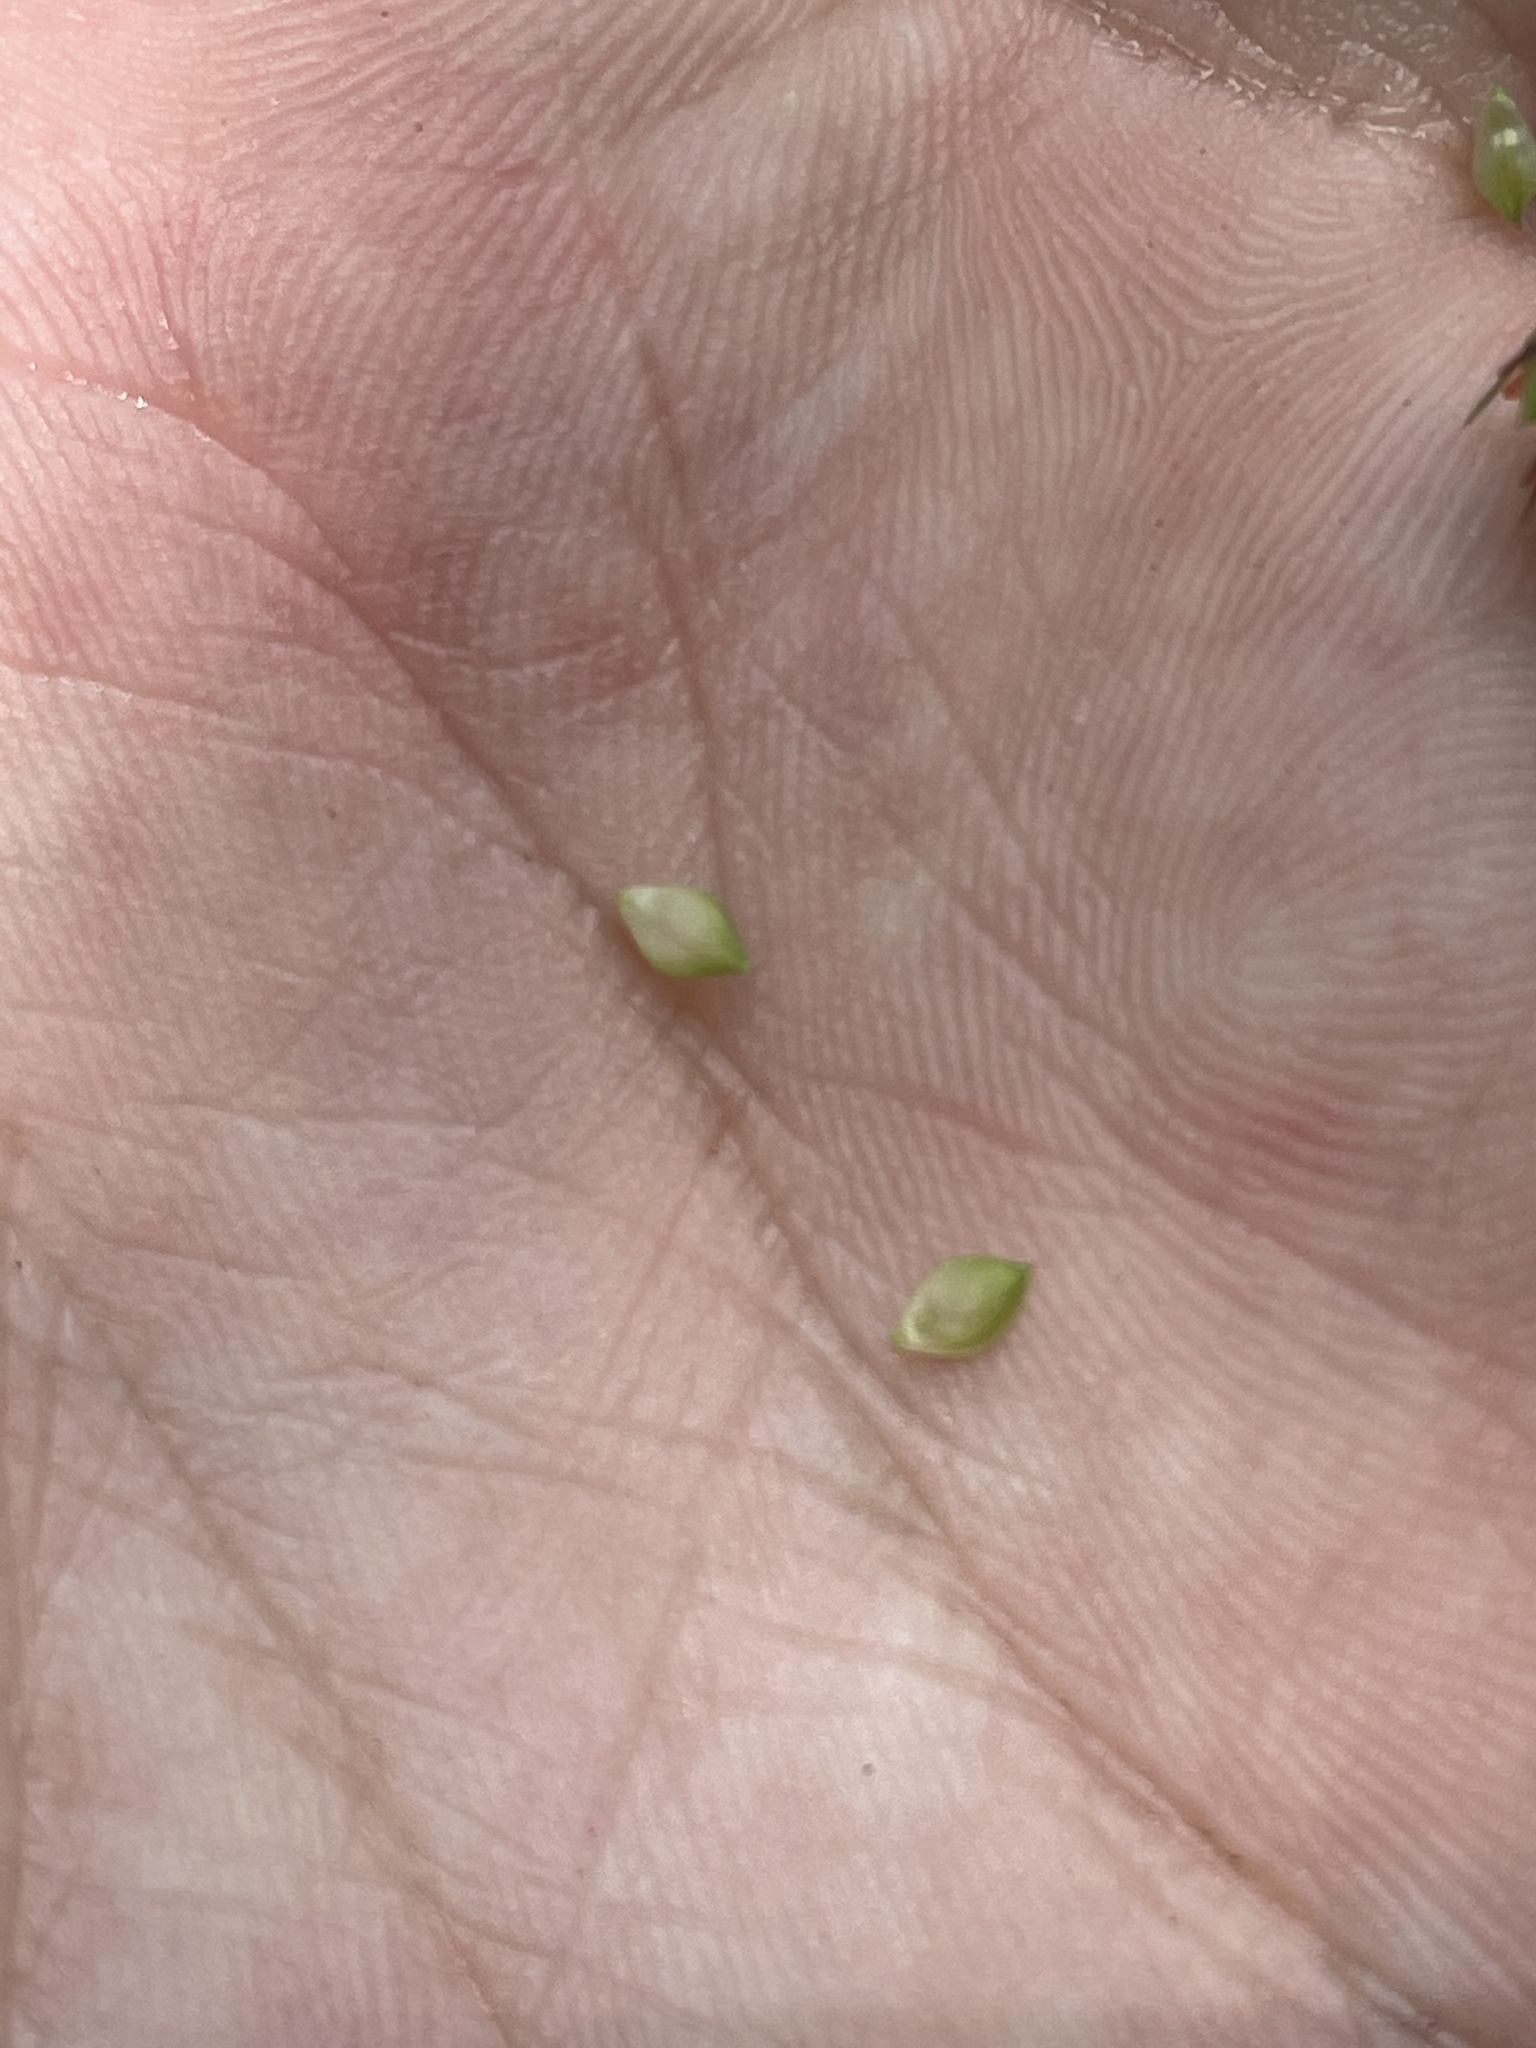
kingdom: Plantae
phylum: Tracheophyta
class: Liliopsida
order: Poales
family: Cyperaceae
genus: Carex
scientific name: Carex fumosimontana
